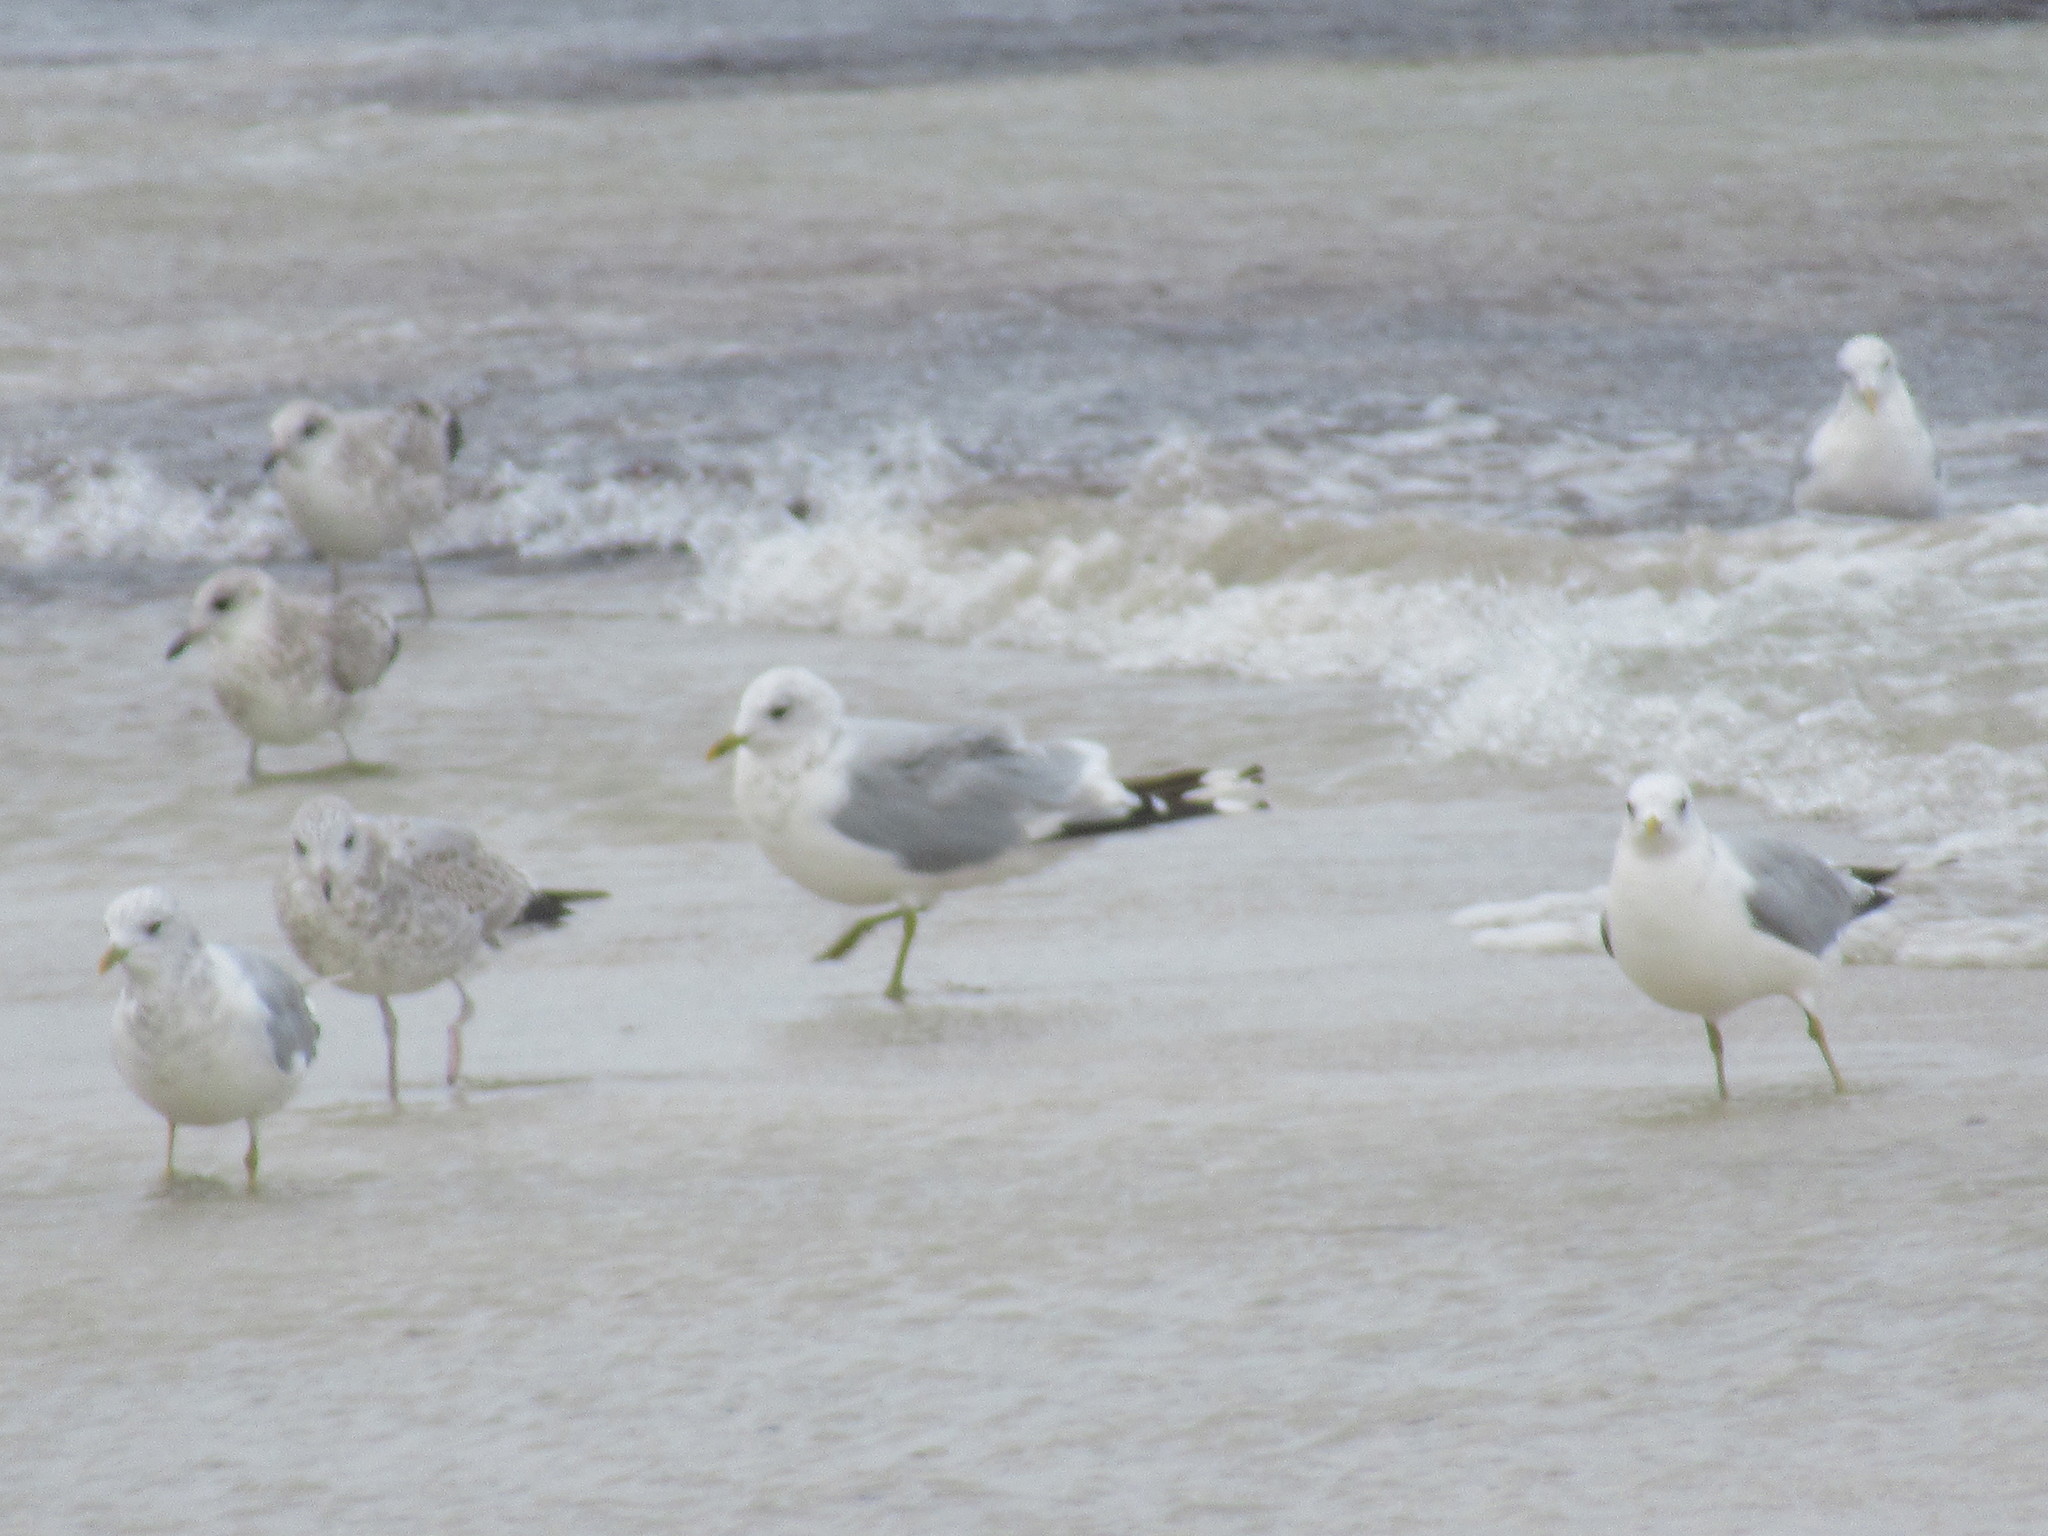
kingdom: Animalia
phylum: Chordata
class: Aves
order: Charadriiformes
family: Laridae
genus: Larus
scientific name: Larus canus
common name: Mew gull
